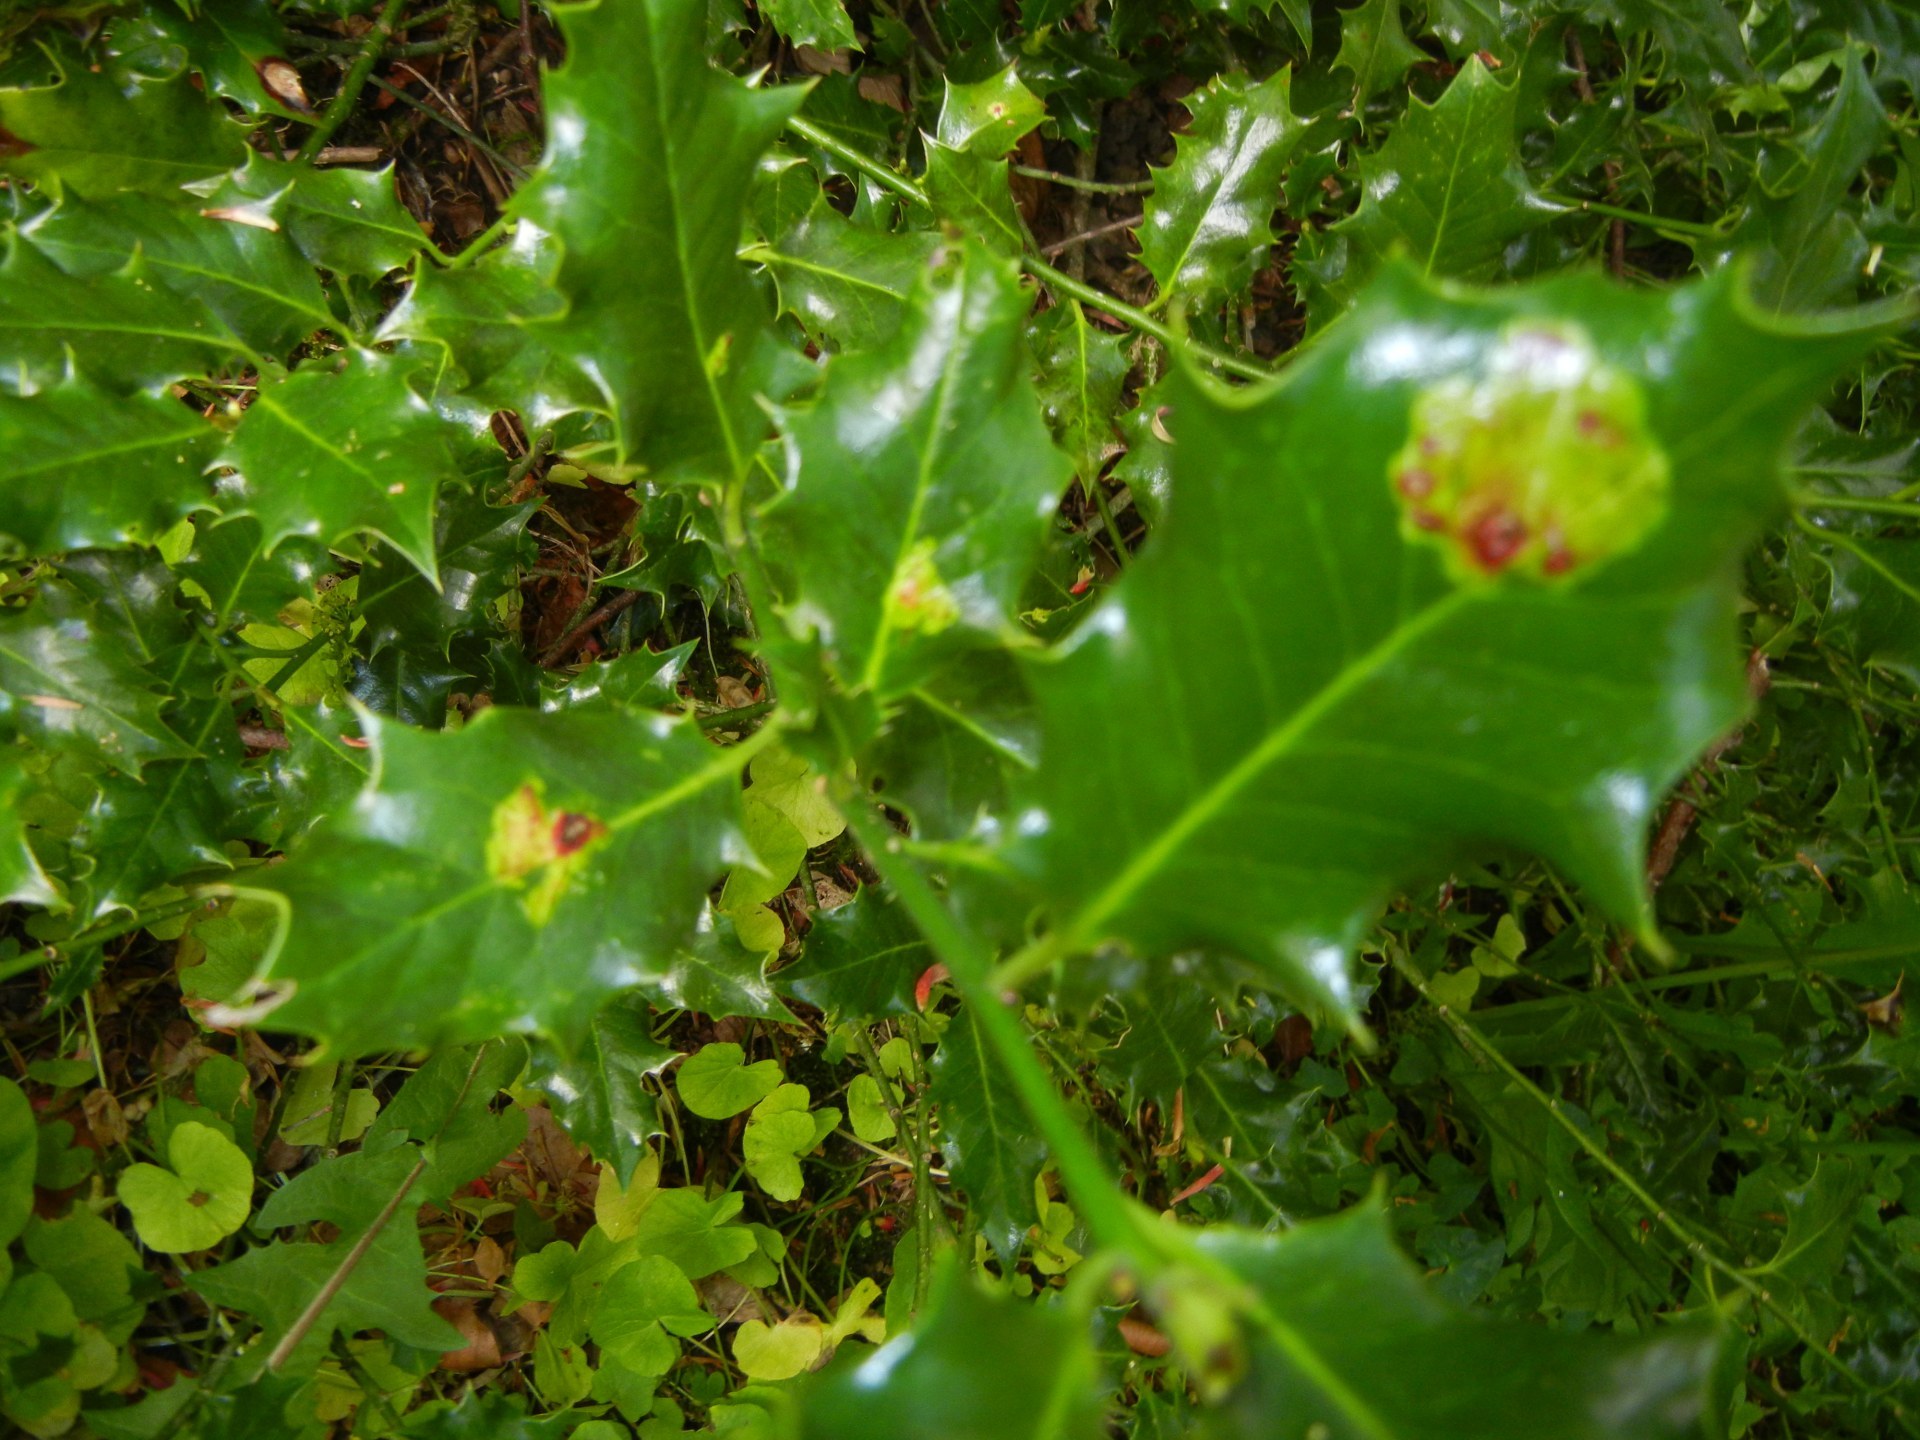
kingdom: Animalia
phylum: Arthropoda
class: Insecta
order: Diptera
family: Agromyzidae
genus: Phytomyza
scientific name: Phytomyza ilicis
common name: Holly leafminer
